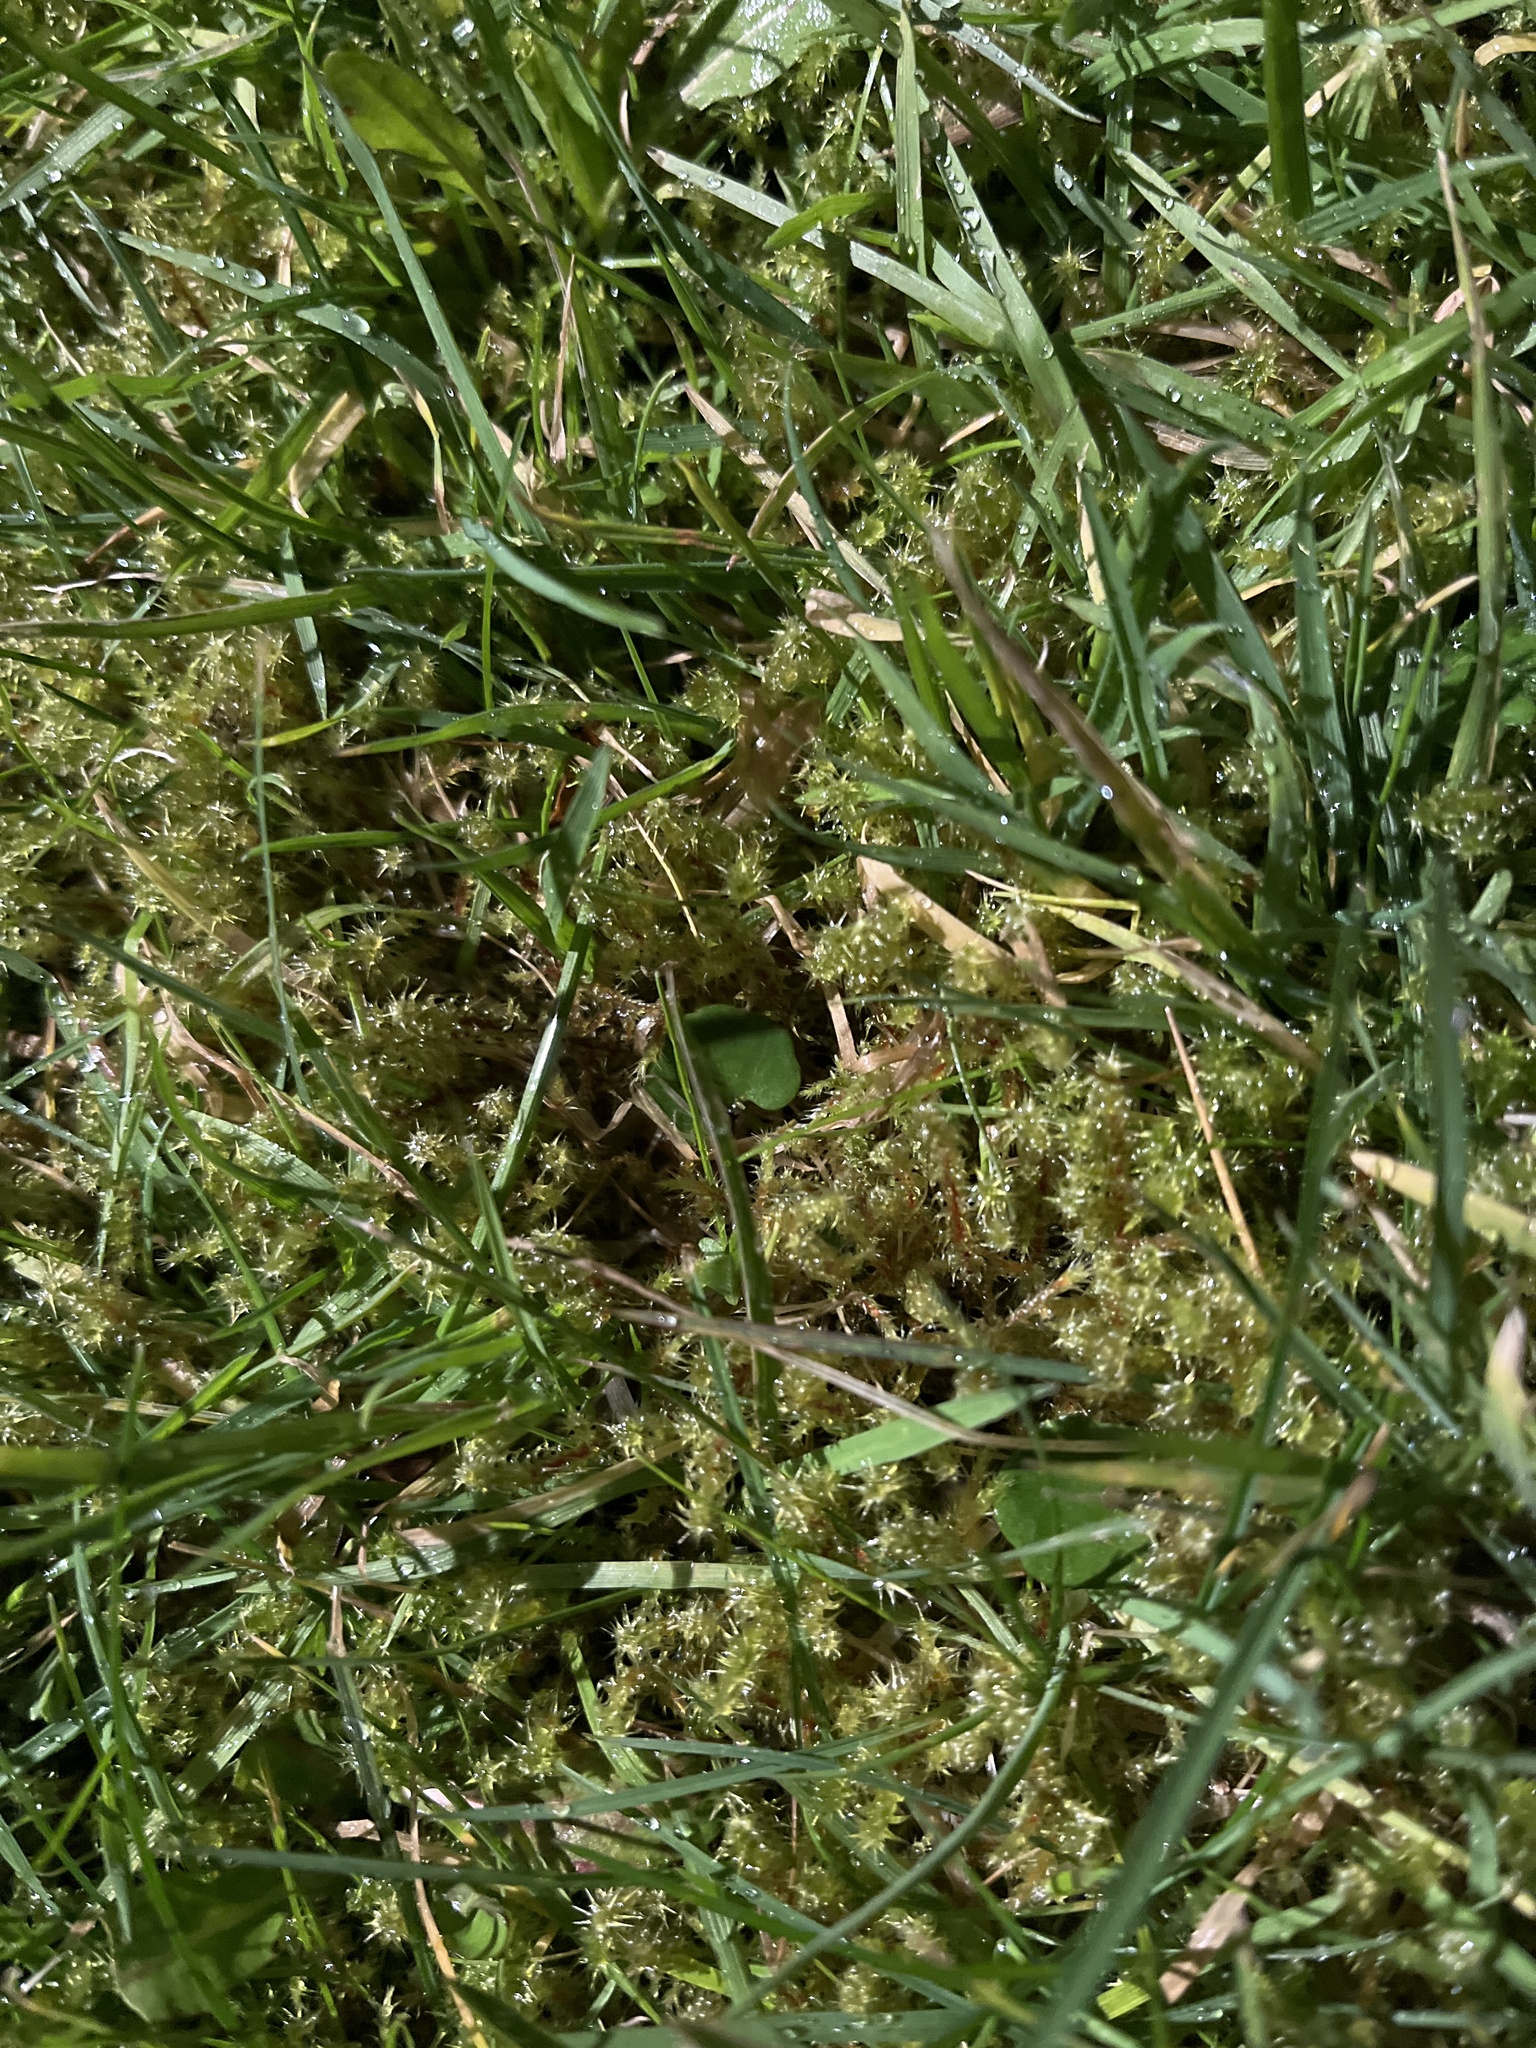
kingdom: Plantae
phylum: Bryophyta
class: Bryopsida
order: Hypnales
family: Hylocomiaceae
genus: Rhytidiadelphus
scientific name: Rhytidiadelphus squarrosus
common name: Springy turf-moss
